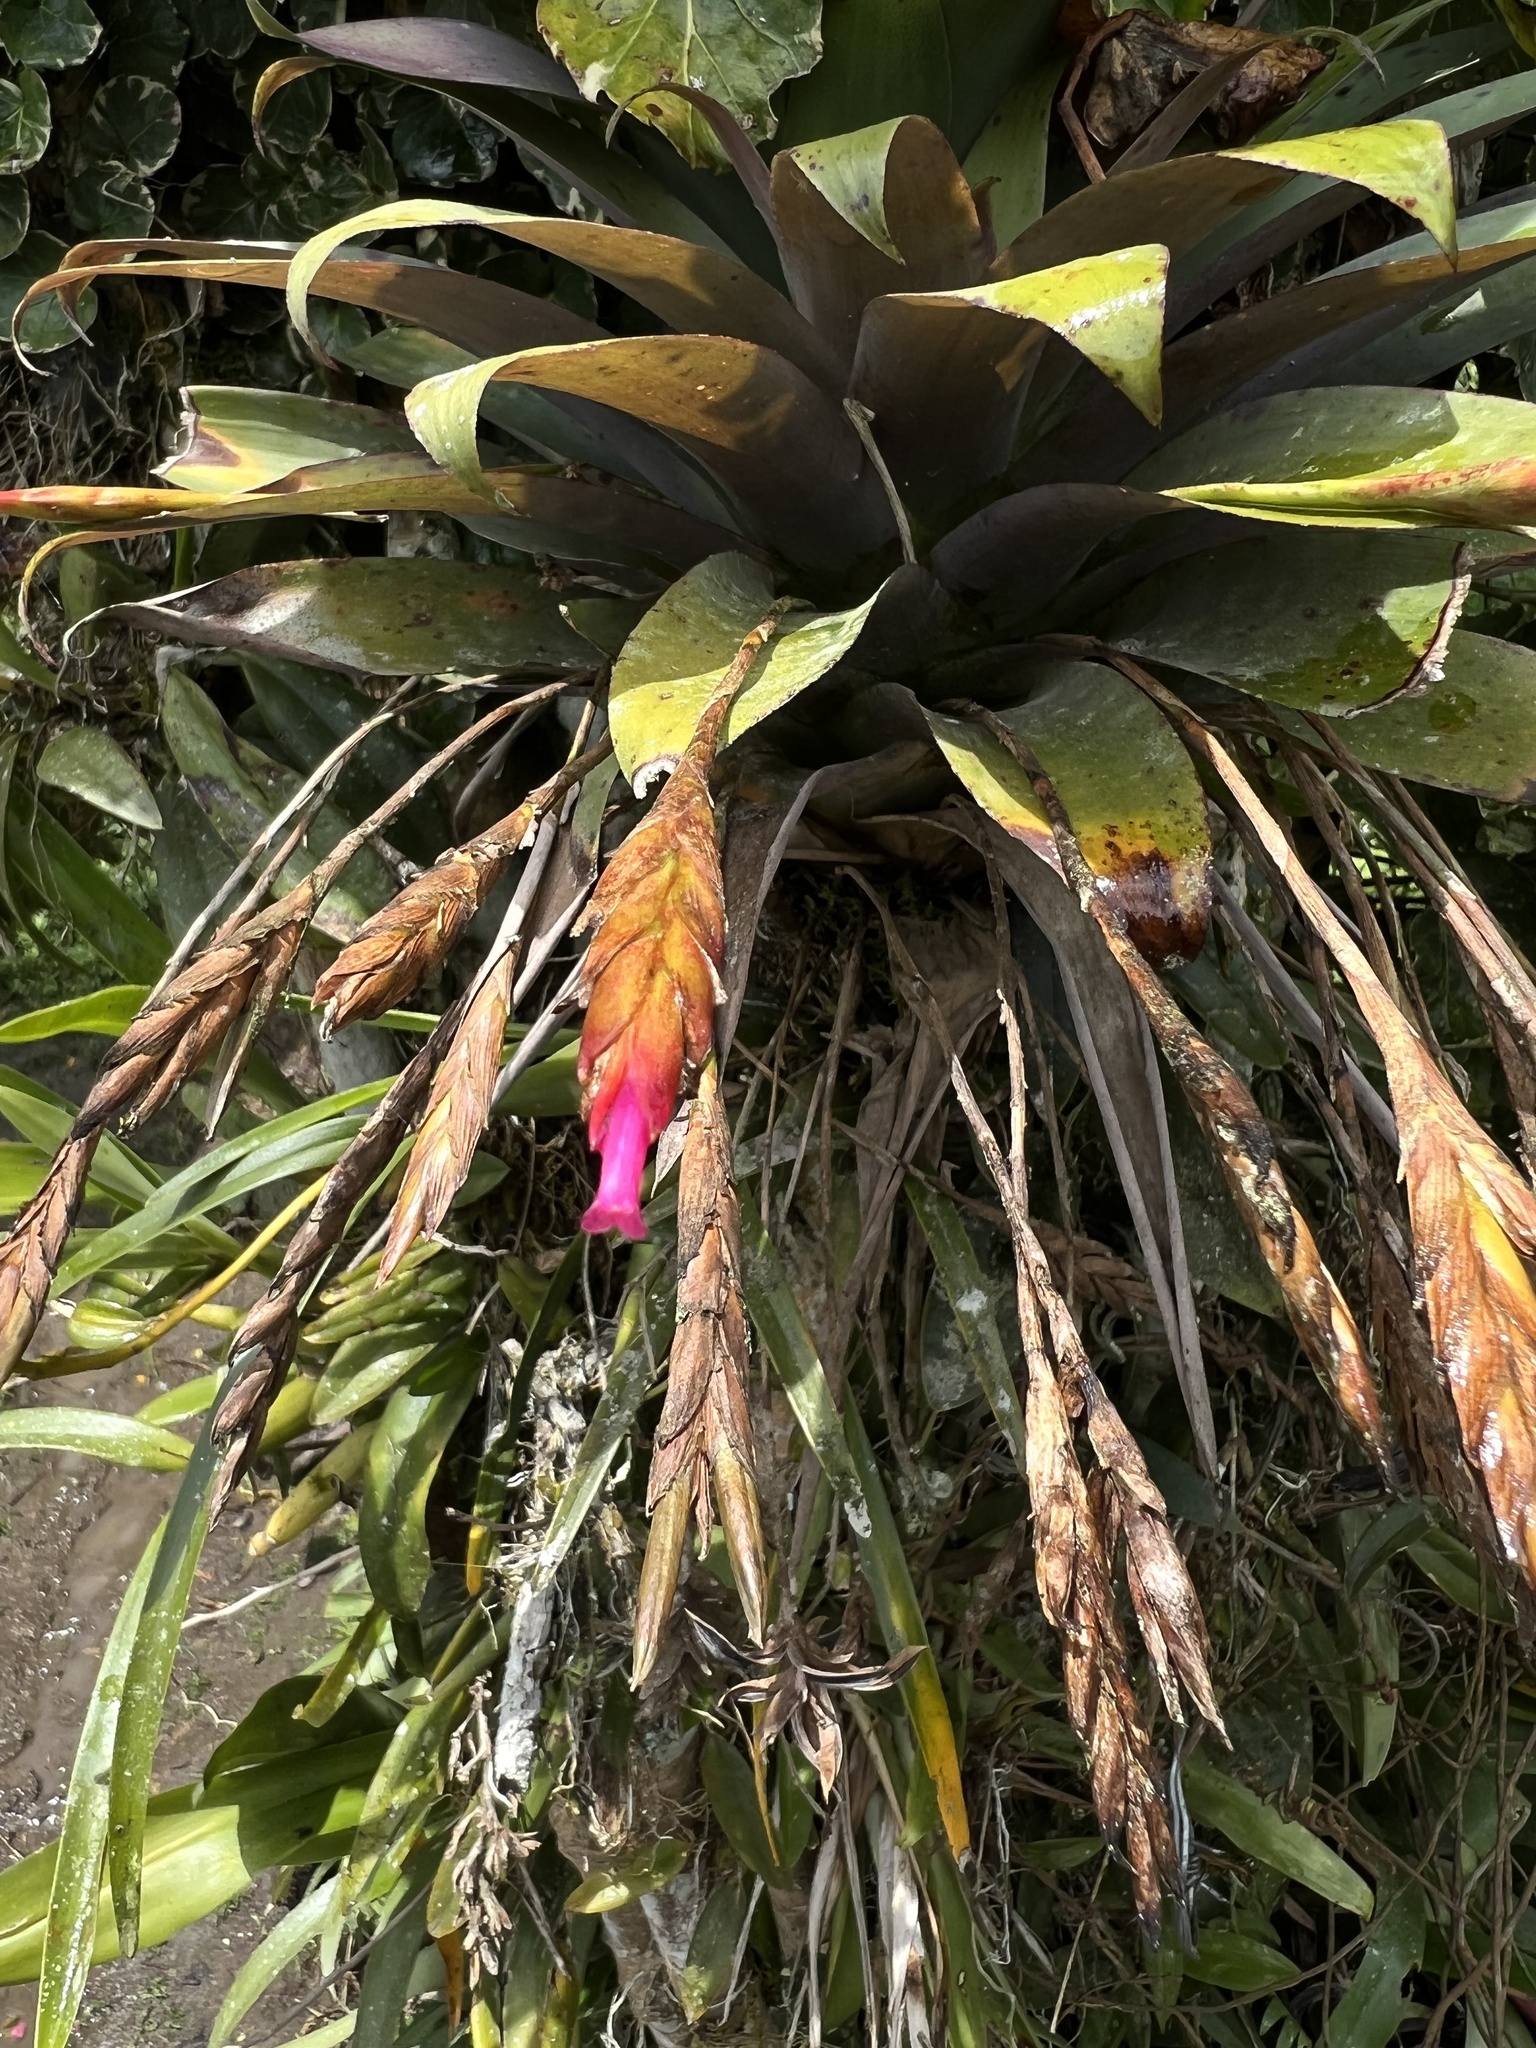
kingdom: Plantae
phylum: Tracheophyta
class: Liliopsida
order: Poales
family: Bromeliaceae
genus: Tillandsia
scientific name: Tillandsia complanata
